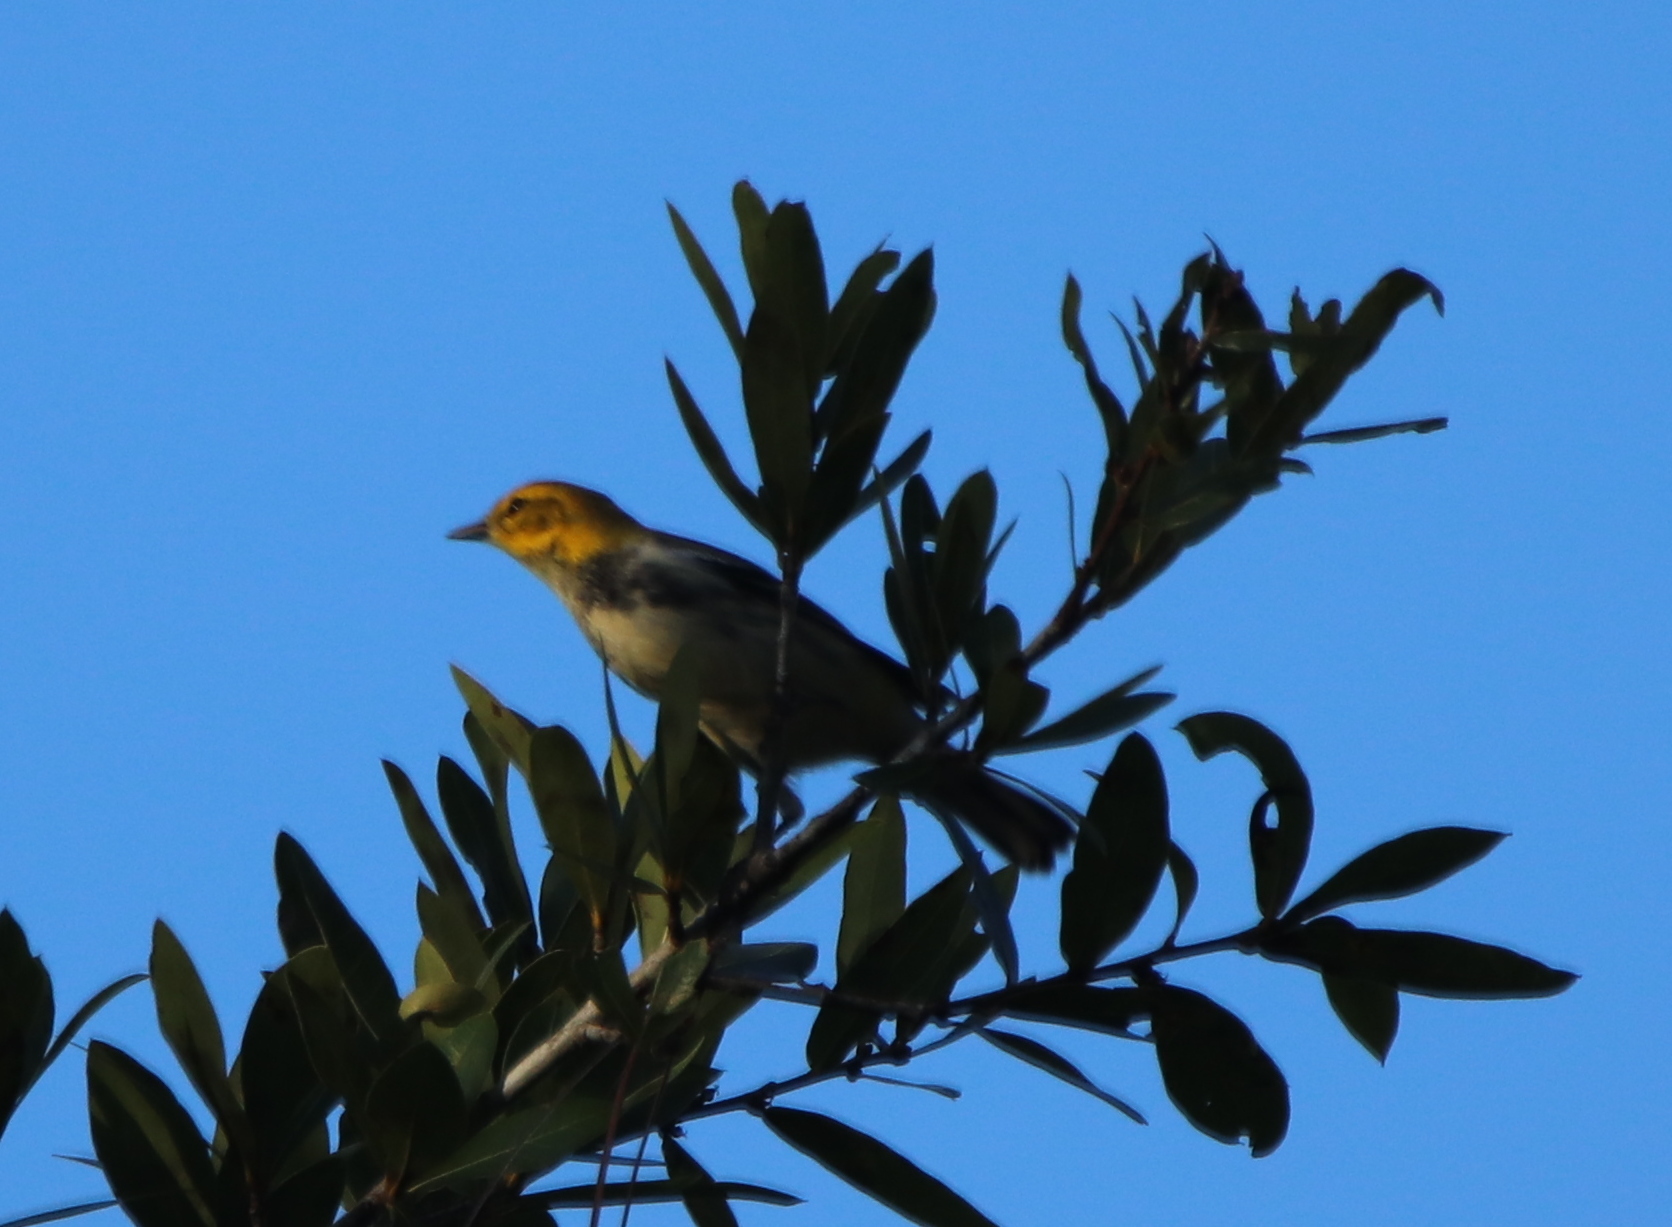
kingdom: Animalia
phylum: Chordata
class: Aves
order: Passeriformes
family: Parulidae
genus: Setophaga
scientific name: Setophaga virens
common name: Black-throated green warbler
